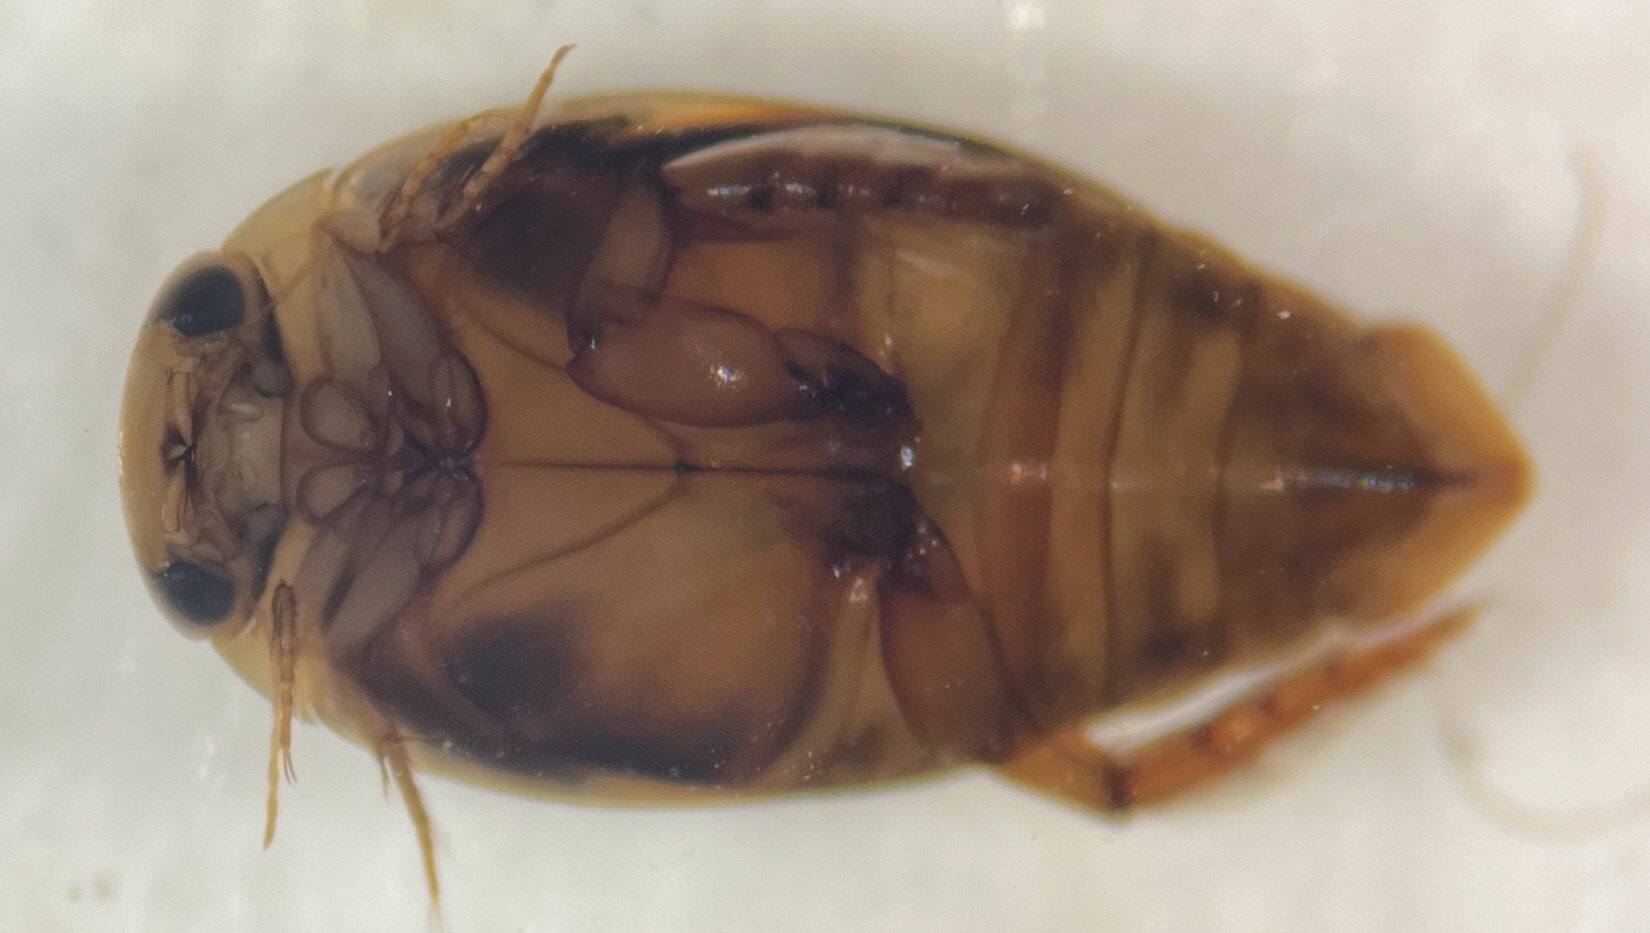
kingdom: Animalia
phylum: Arthropoda
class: Insecta
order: Coleoptera
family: Dytiscidae
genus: Laccophilus
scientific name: Laccophilus fasciatus
